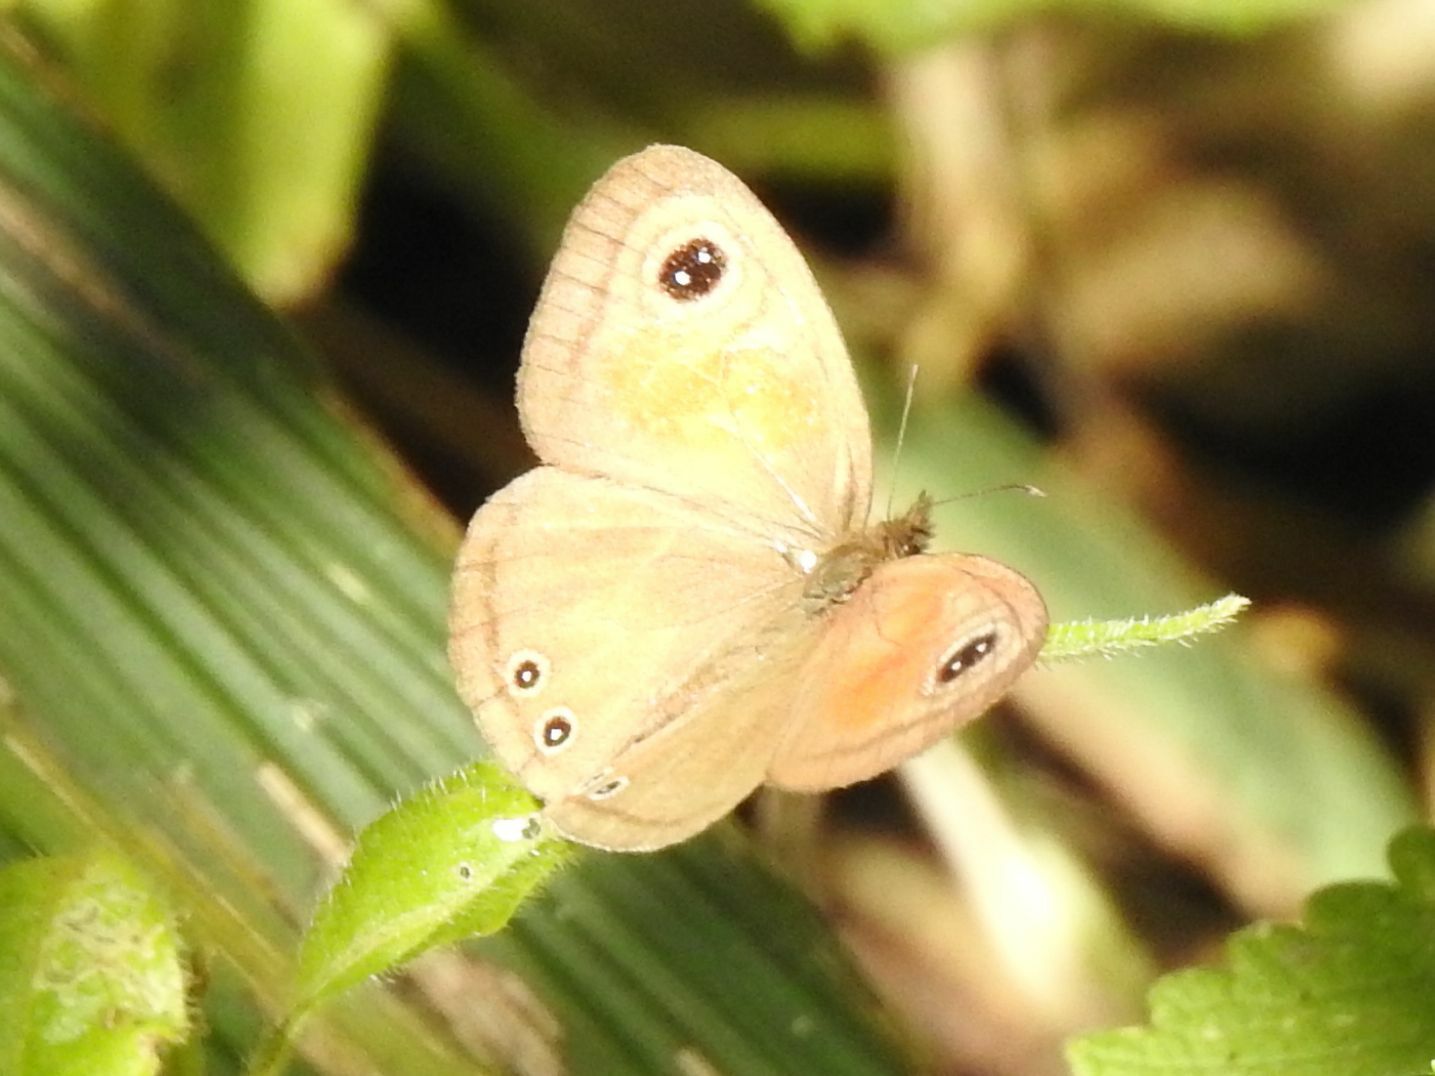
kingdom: Animalia
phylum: Arthropoda
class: Insecta
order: Lepidoptera
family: Nymphalidae
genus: Cassionympha
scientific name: Cassionympha cassius
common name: Rainforest brown
